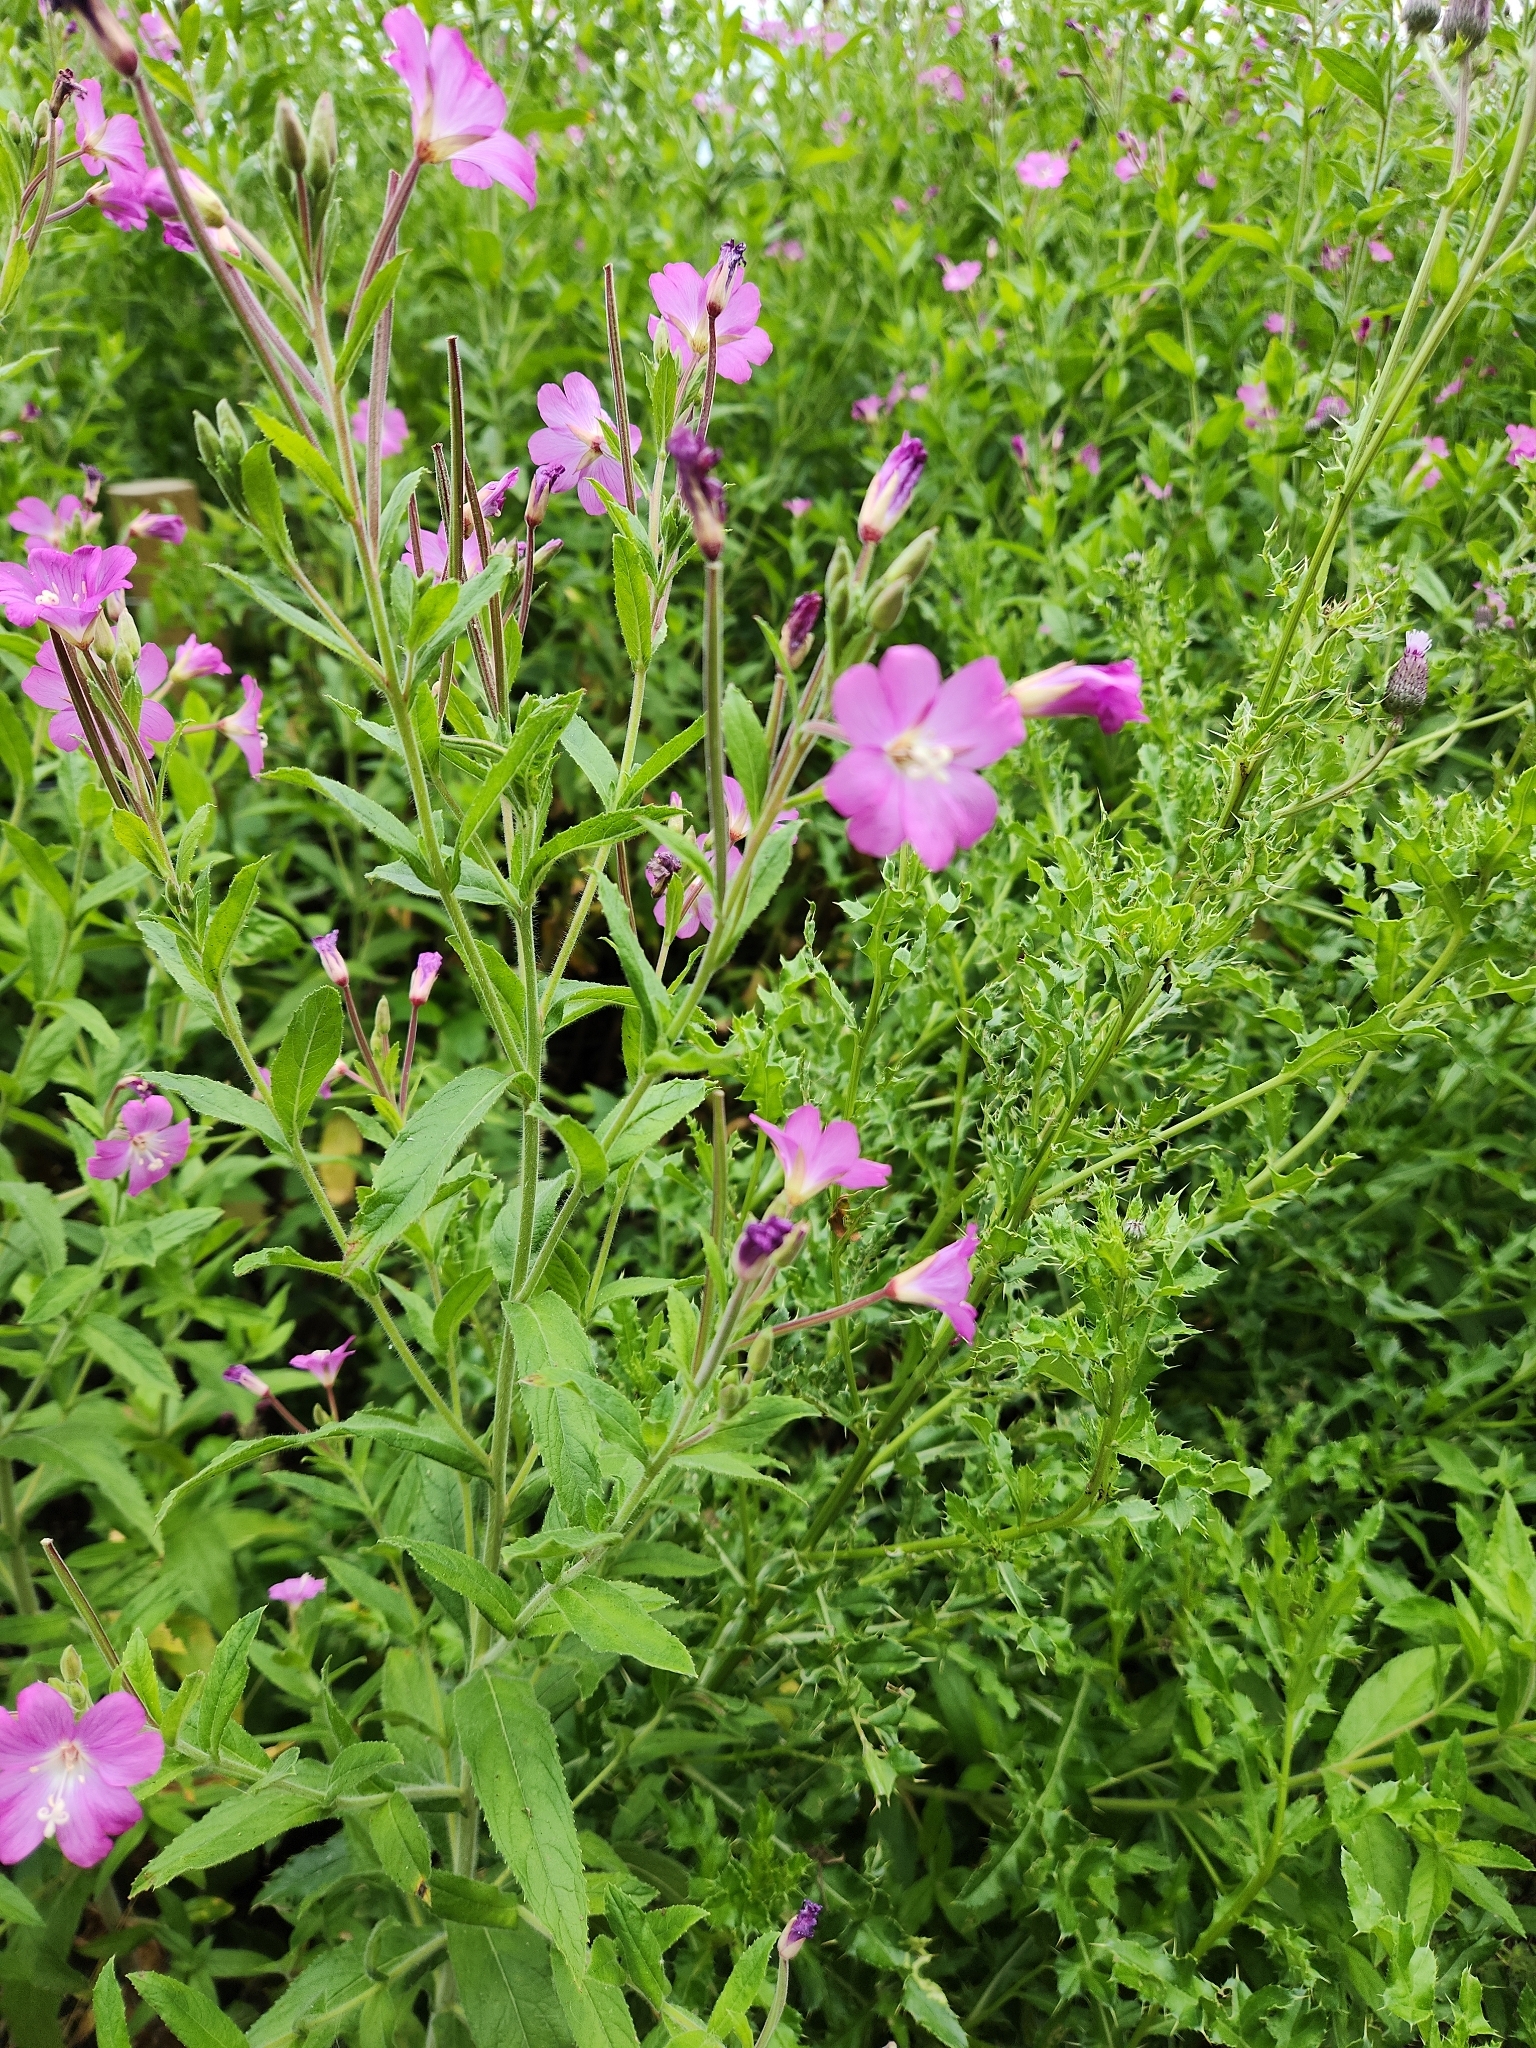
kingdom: Plantae
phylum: Tracheophyta
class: Magnoliopsida
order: Myrtales
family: Onagraceae
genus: Epilobium
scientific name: Epilobium hirsutum
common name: Great willowherb
